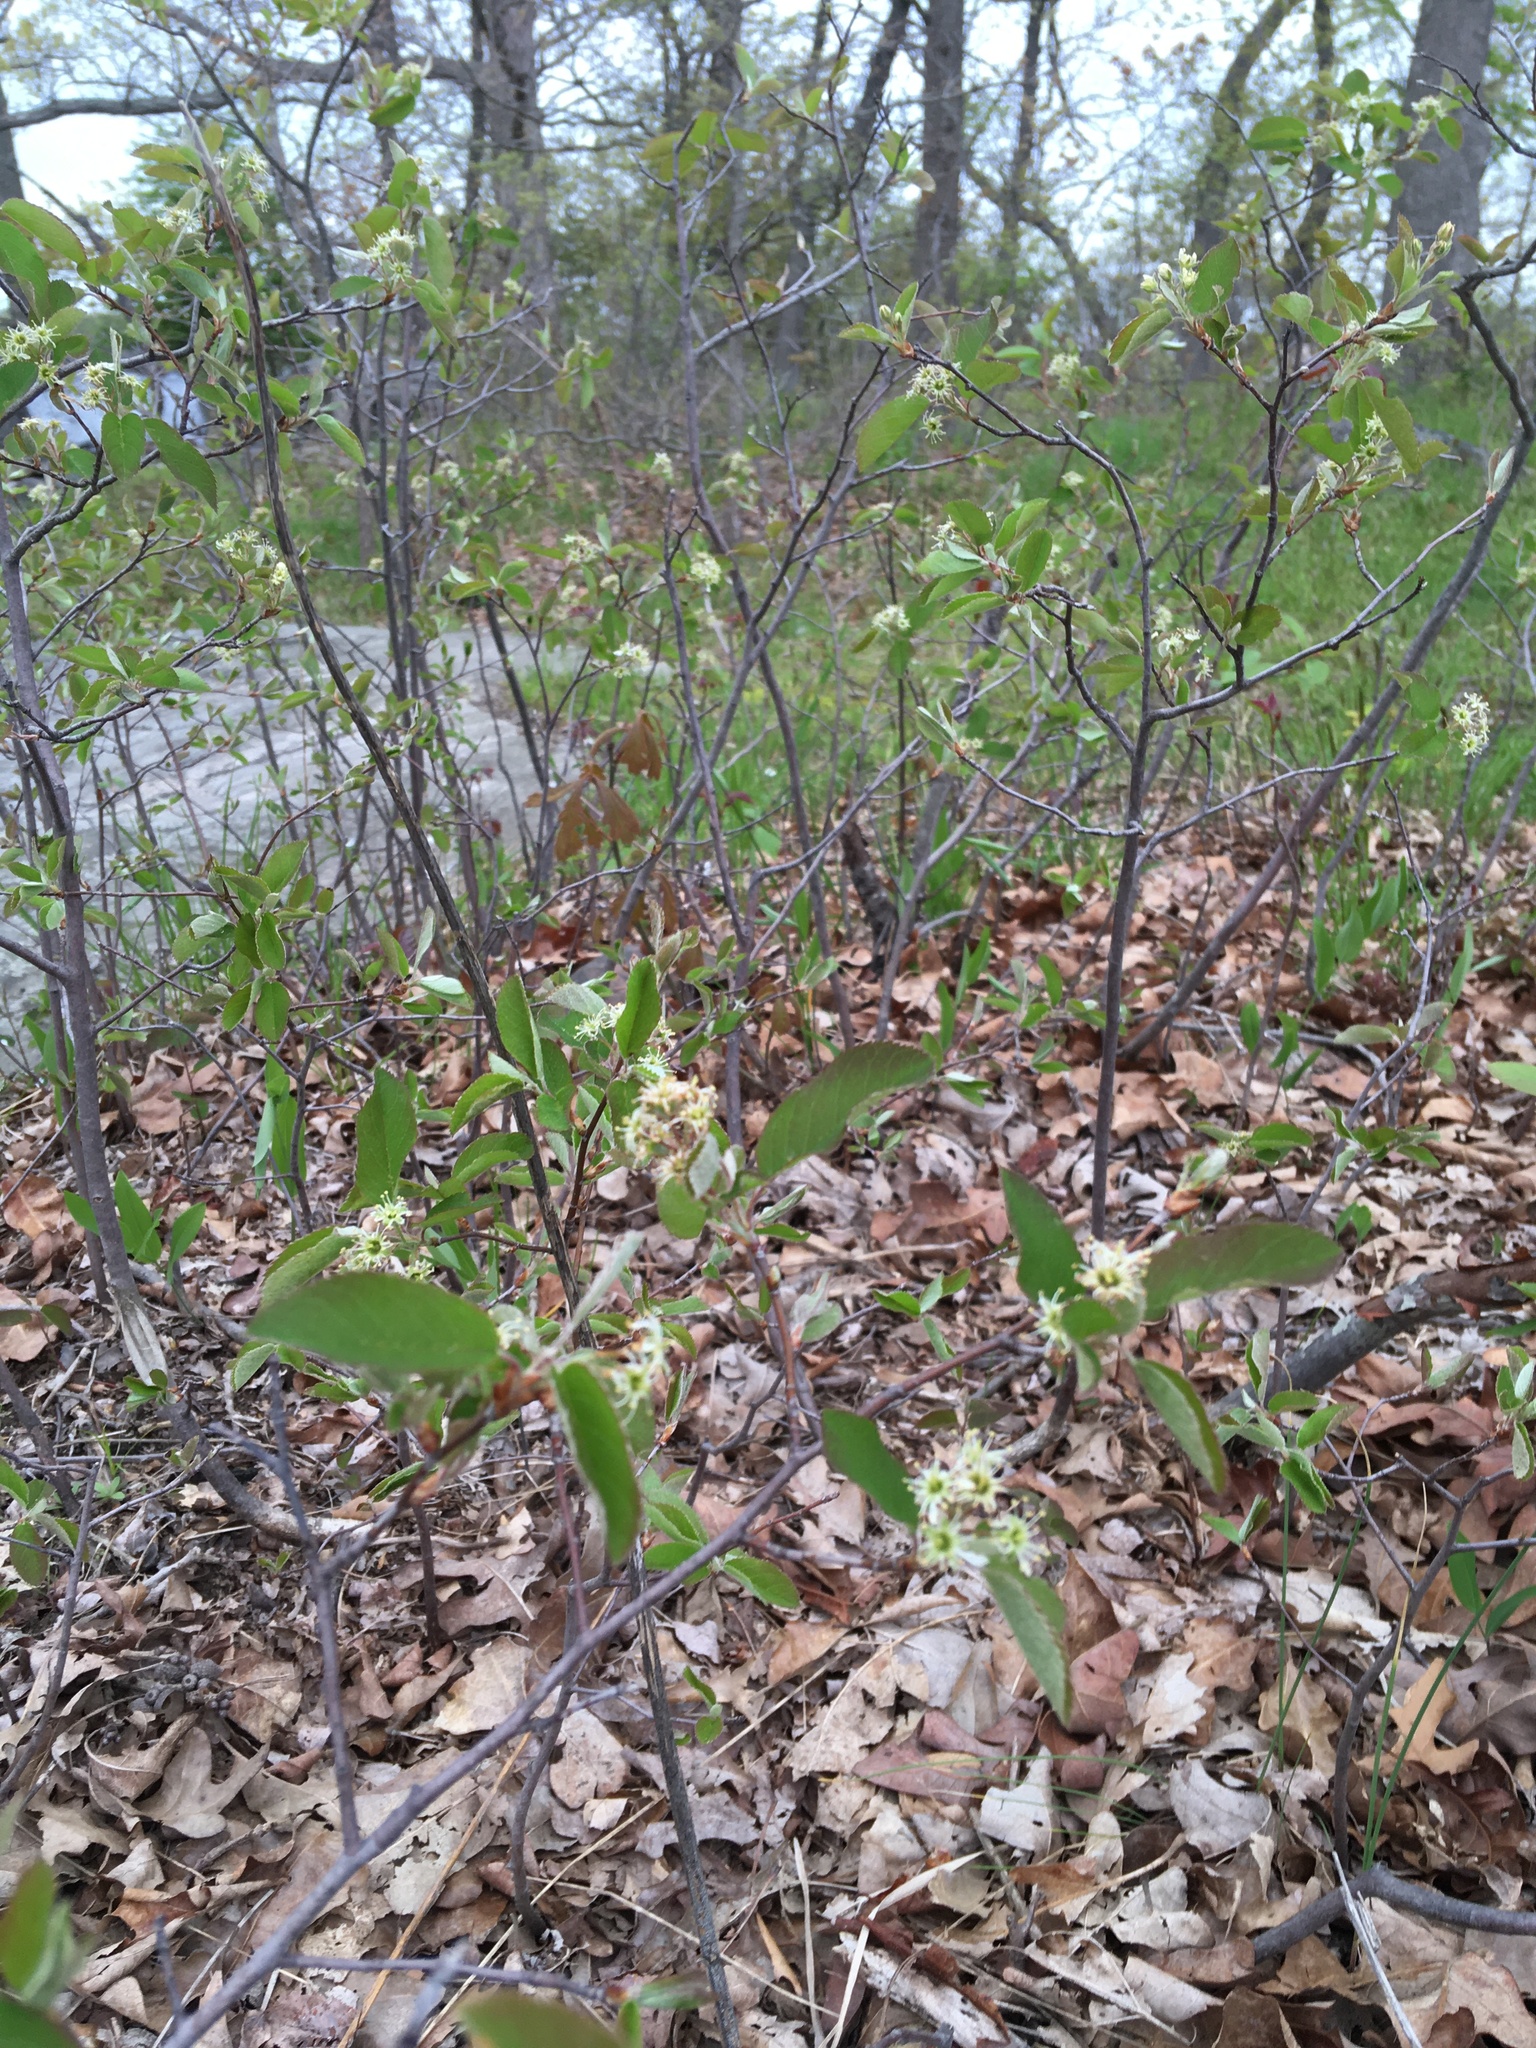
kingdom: Plantae
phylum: Tracheophyta
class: Magnoliopsida
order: Rosales
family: Rosaceae
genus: Amelanchier
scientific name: Amelanchier nantucketensis
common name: Nantucket shadbush
